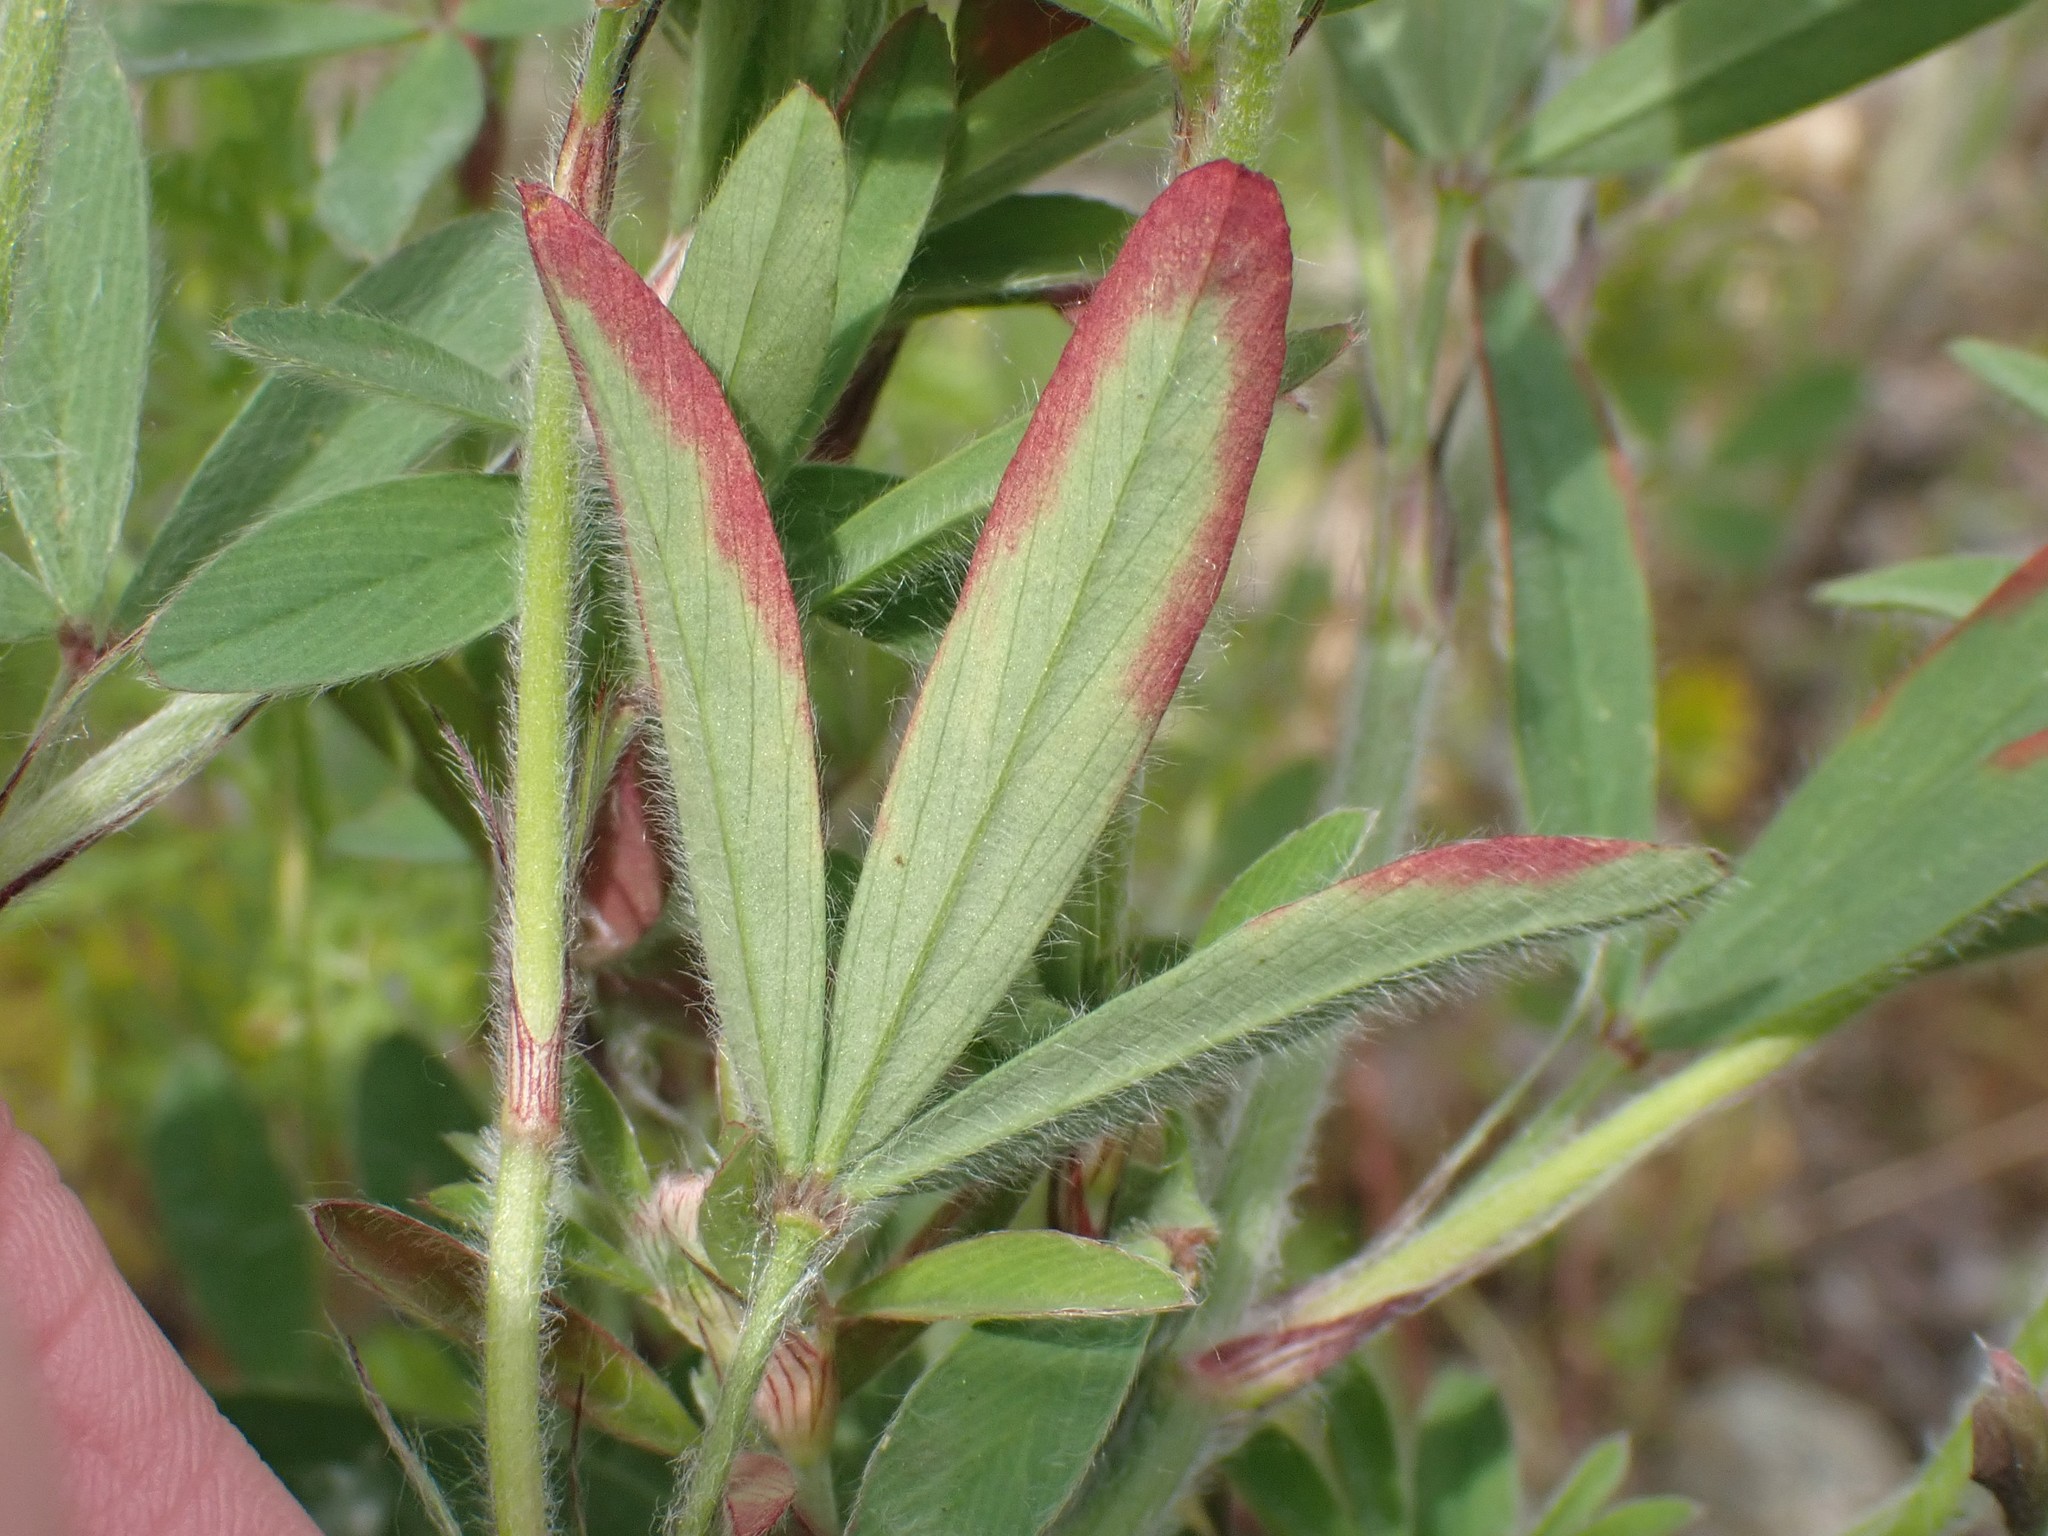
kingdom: Plantae
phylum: Tracheophyta
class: Magnoliopsida
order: Fabales
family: Fabaceae
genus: Trifolium
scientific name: Trifolium arvense
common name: Hare's-foot clover
